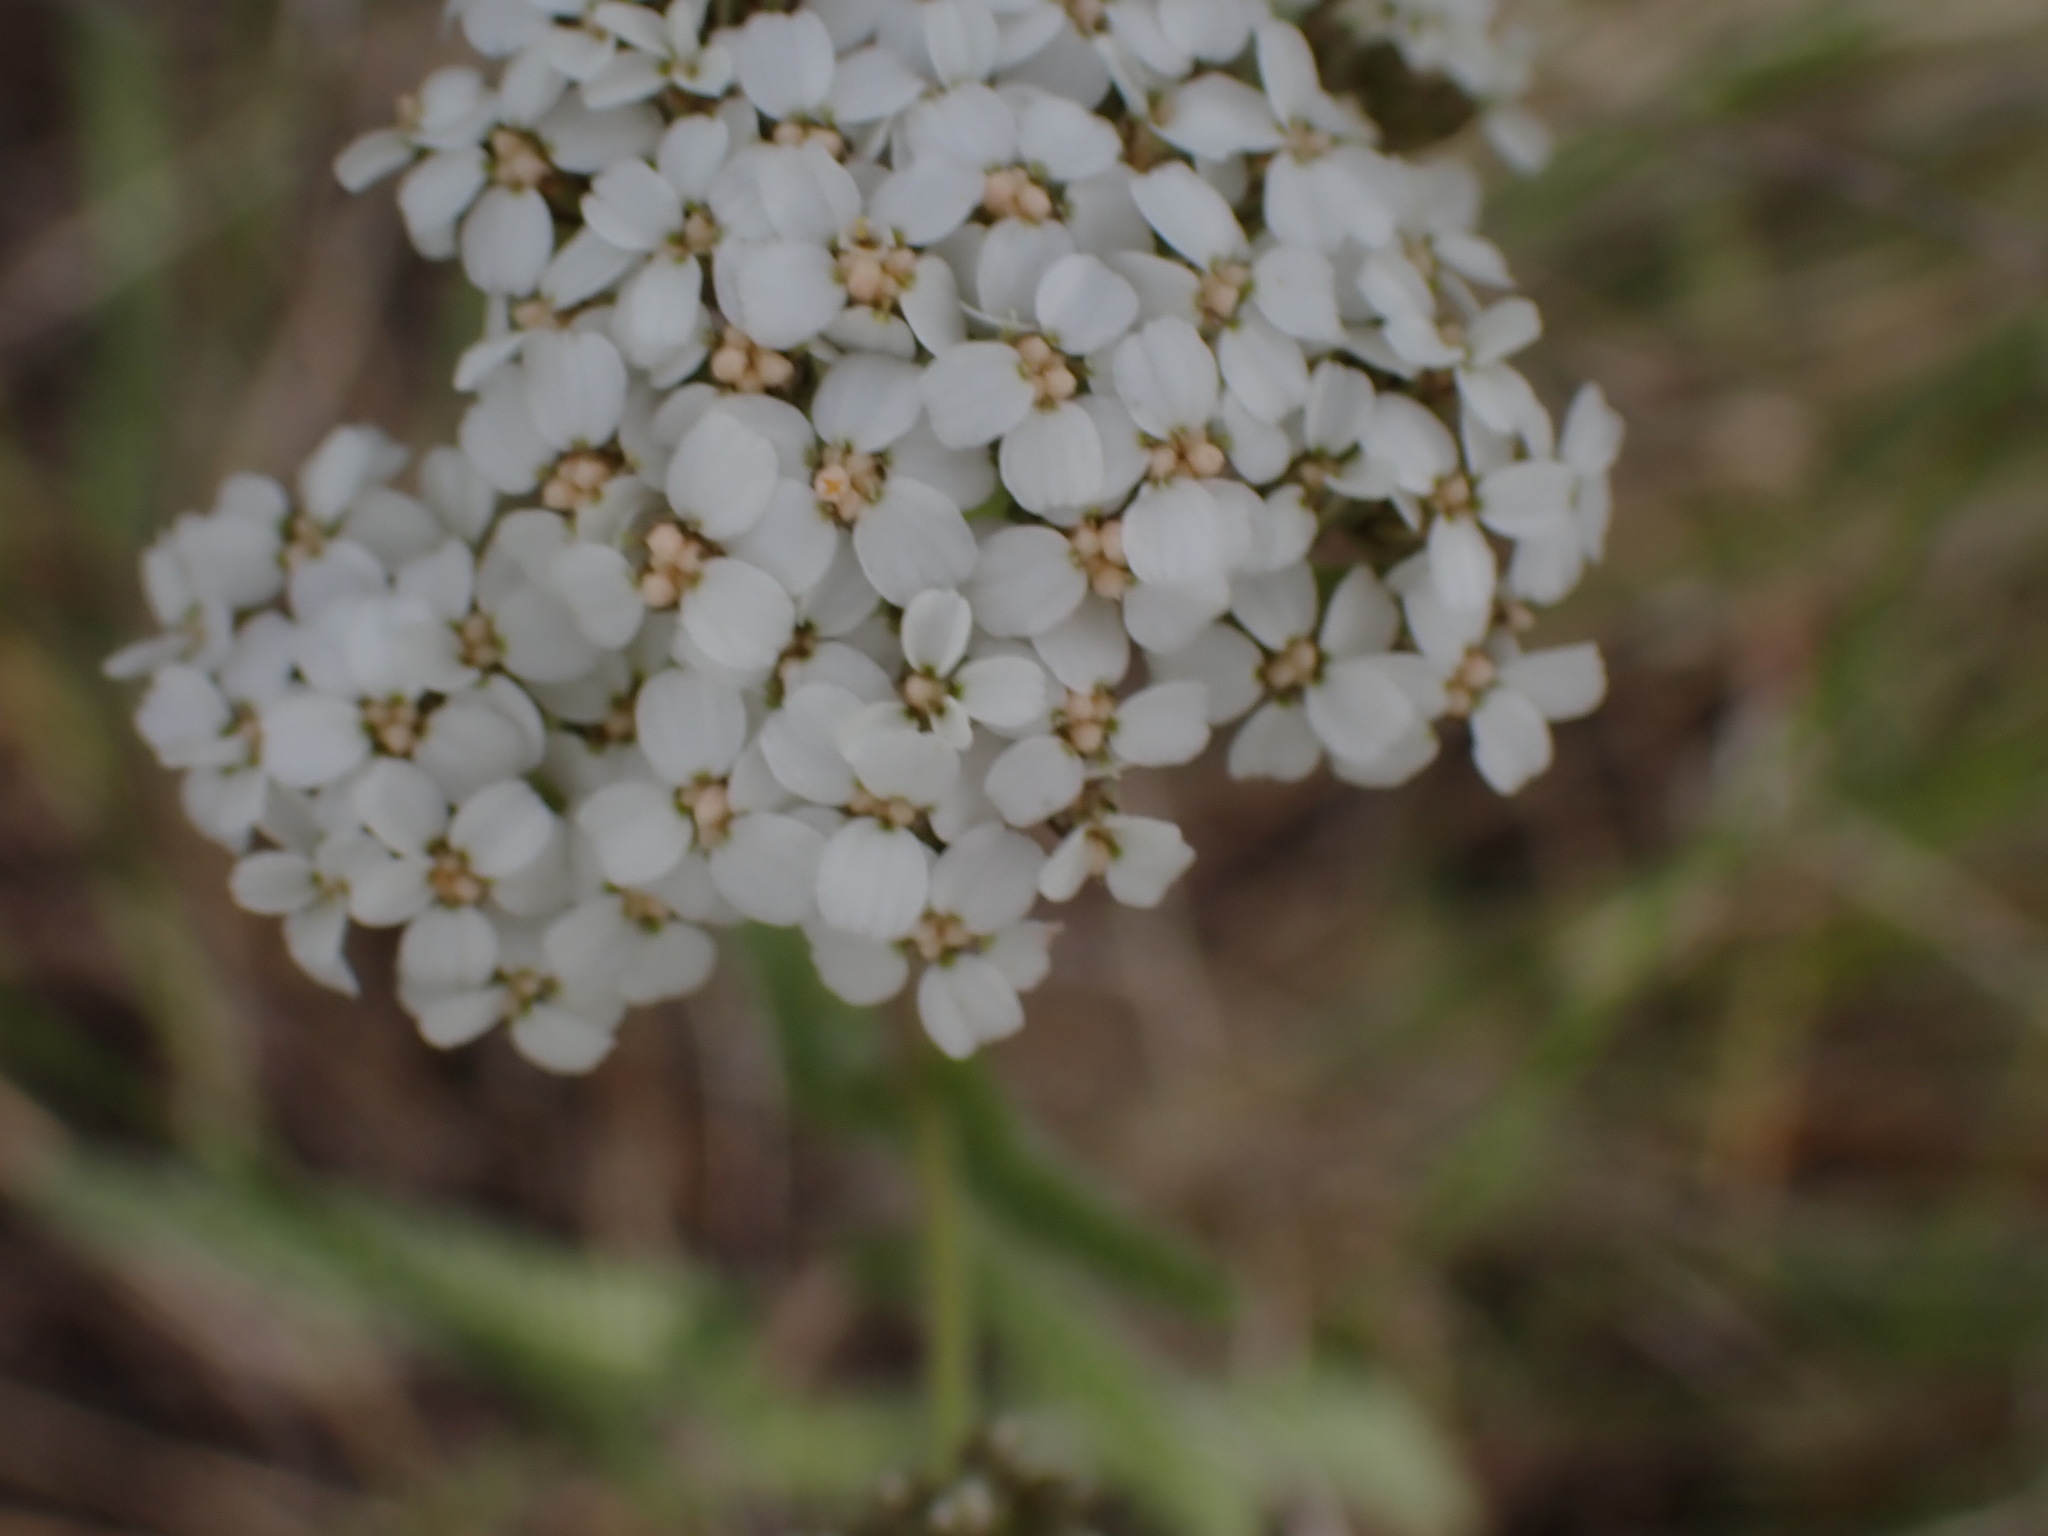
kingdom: Plantae
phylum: Tracheophyta
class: Magnoliopsida
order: Asterales
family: Asteraceae
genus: Achillea
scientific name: Achillea millefolium
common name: Yarrow
